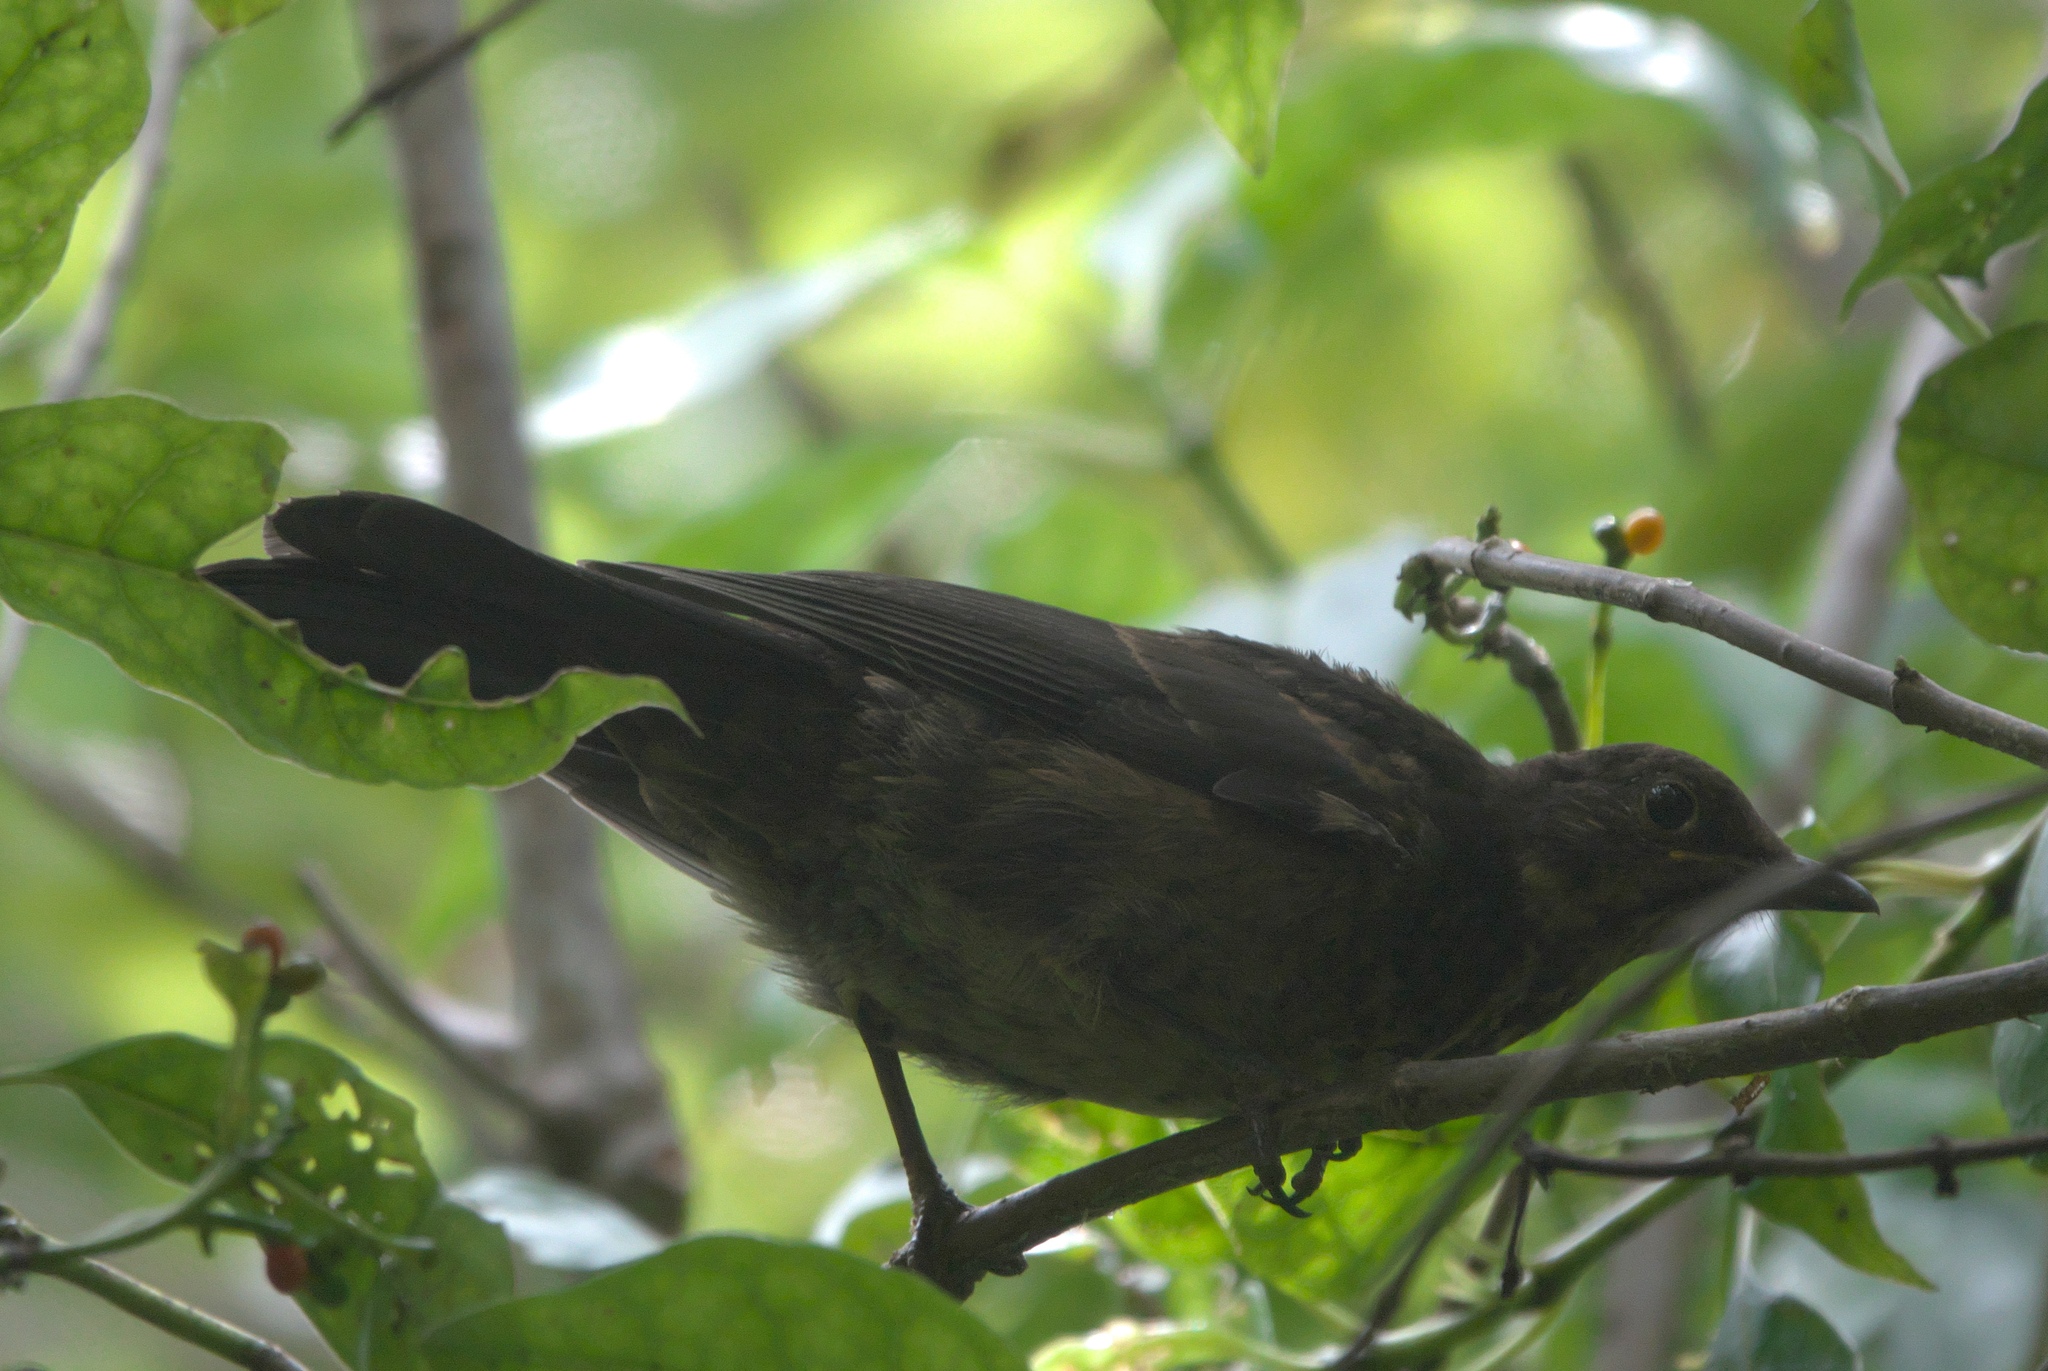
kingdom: Animalia
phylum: Chordata
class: Aves
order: Passeriformes
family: Turdidae
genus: Turdus
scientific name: Turdus merula
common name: Common blackbird
